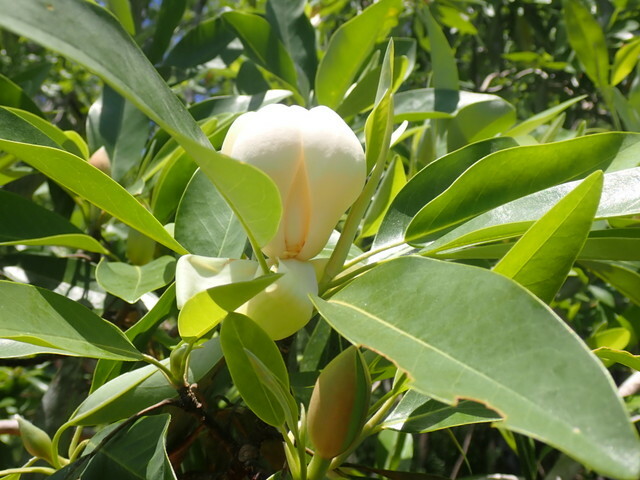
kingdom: Plantae
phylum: Tracheophyta
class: Magnoliopsida
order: Magnoliales
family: Magnoliaceae
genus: Magnolia
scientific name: Magnolia virginiana
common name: Swamp bay
